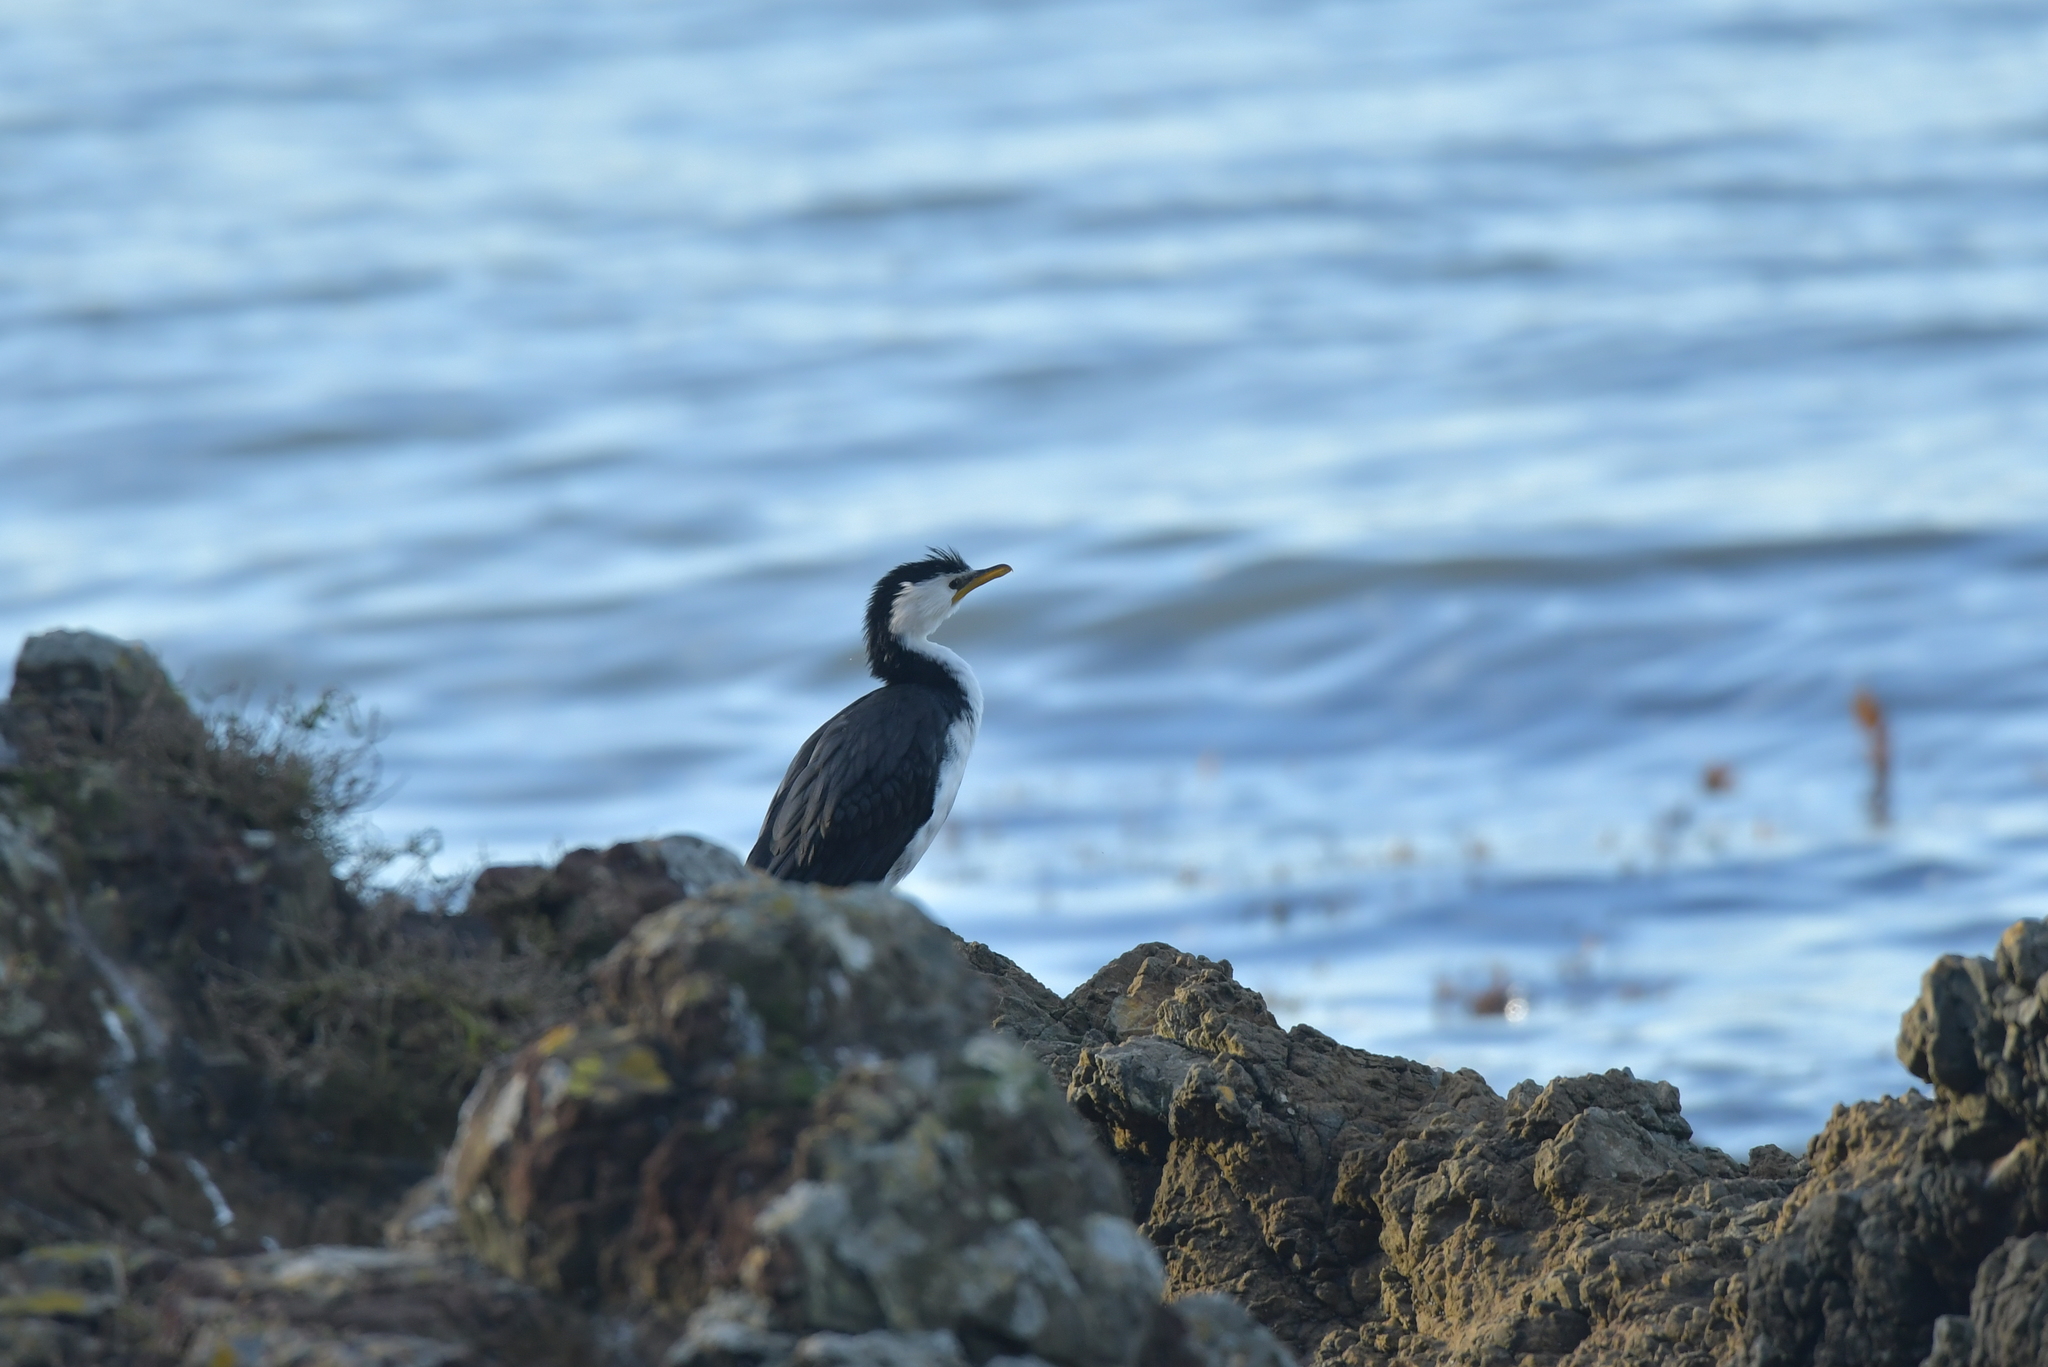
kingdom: Animalia
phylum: Chordata
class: Aves
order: Suliformes
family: Phalacrocoracidae
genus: Microcarbo
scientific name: Microcarbo melanoleucos
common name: Little pied cormorant
